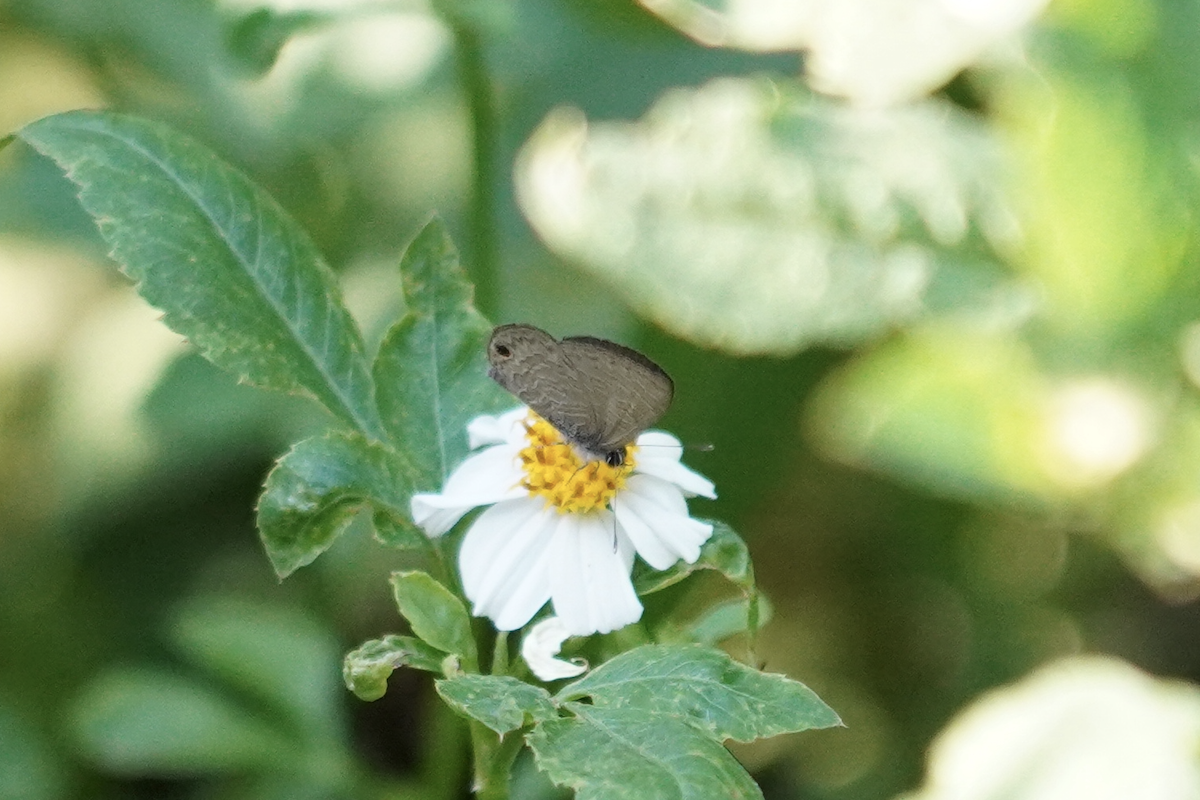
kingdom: Animalia
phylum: Arthropoda
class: Insecta
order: Lepidoptera
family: Lycaenidae
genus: Prosotas
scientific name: Prosotas dubiosa
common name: Tailless lineblue
